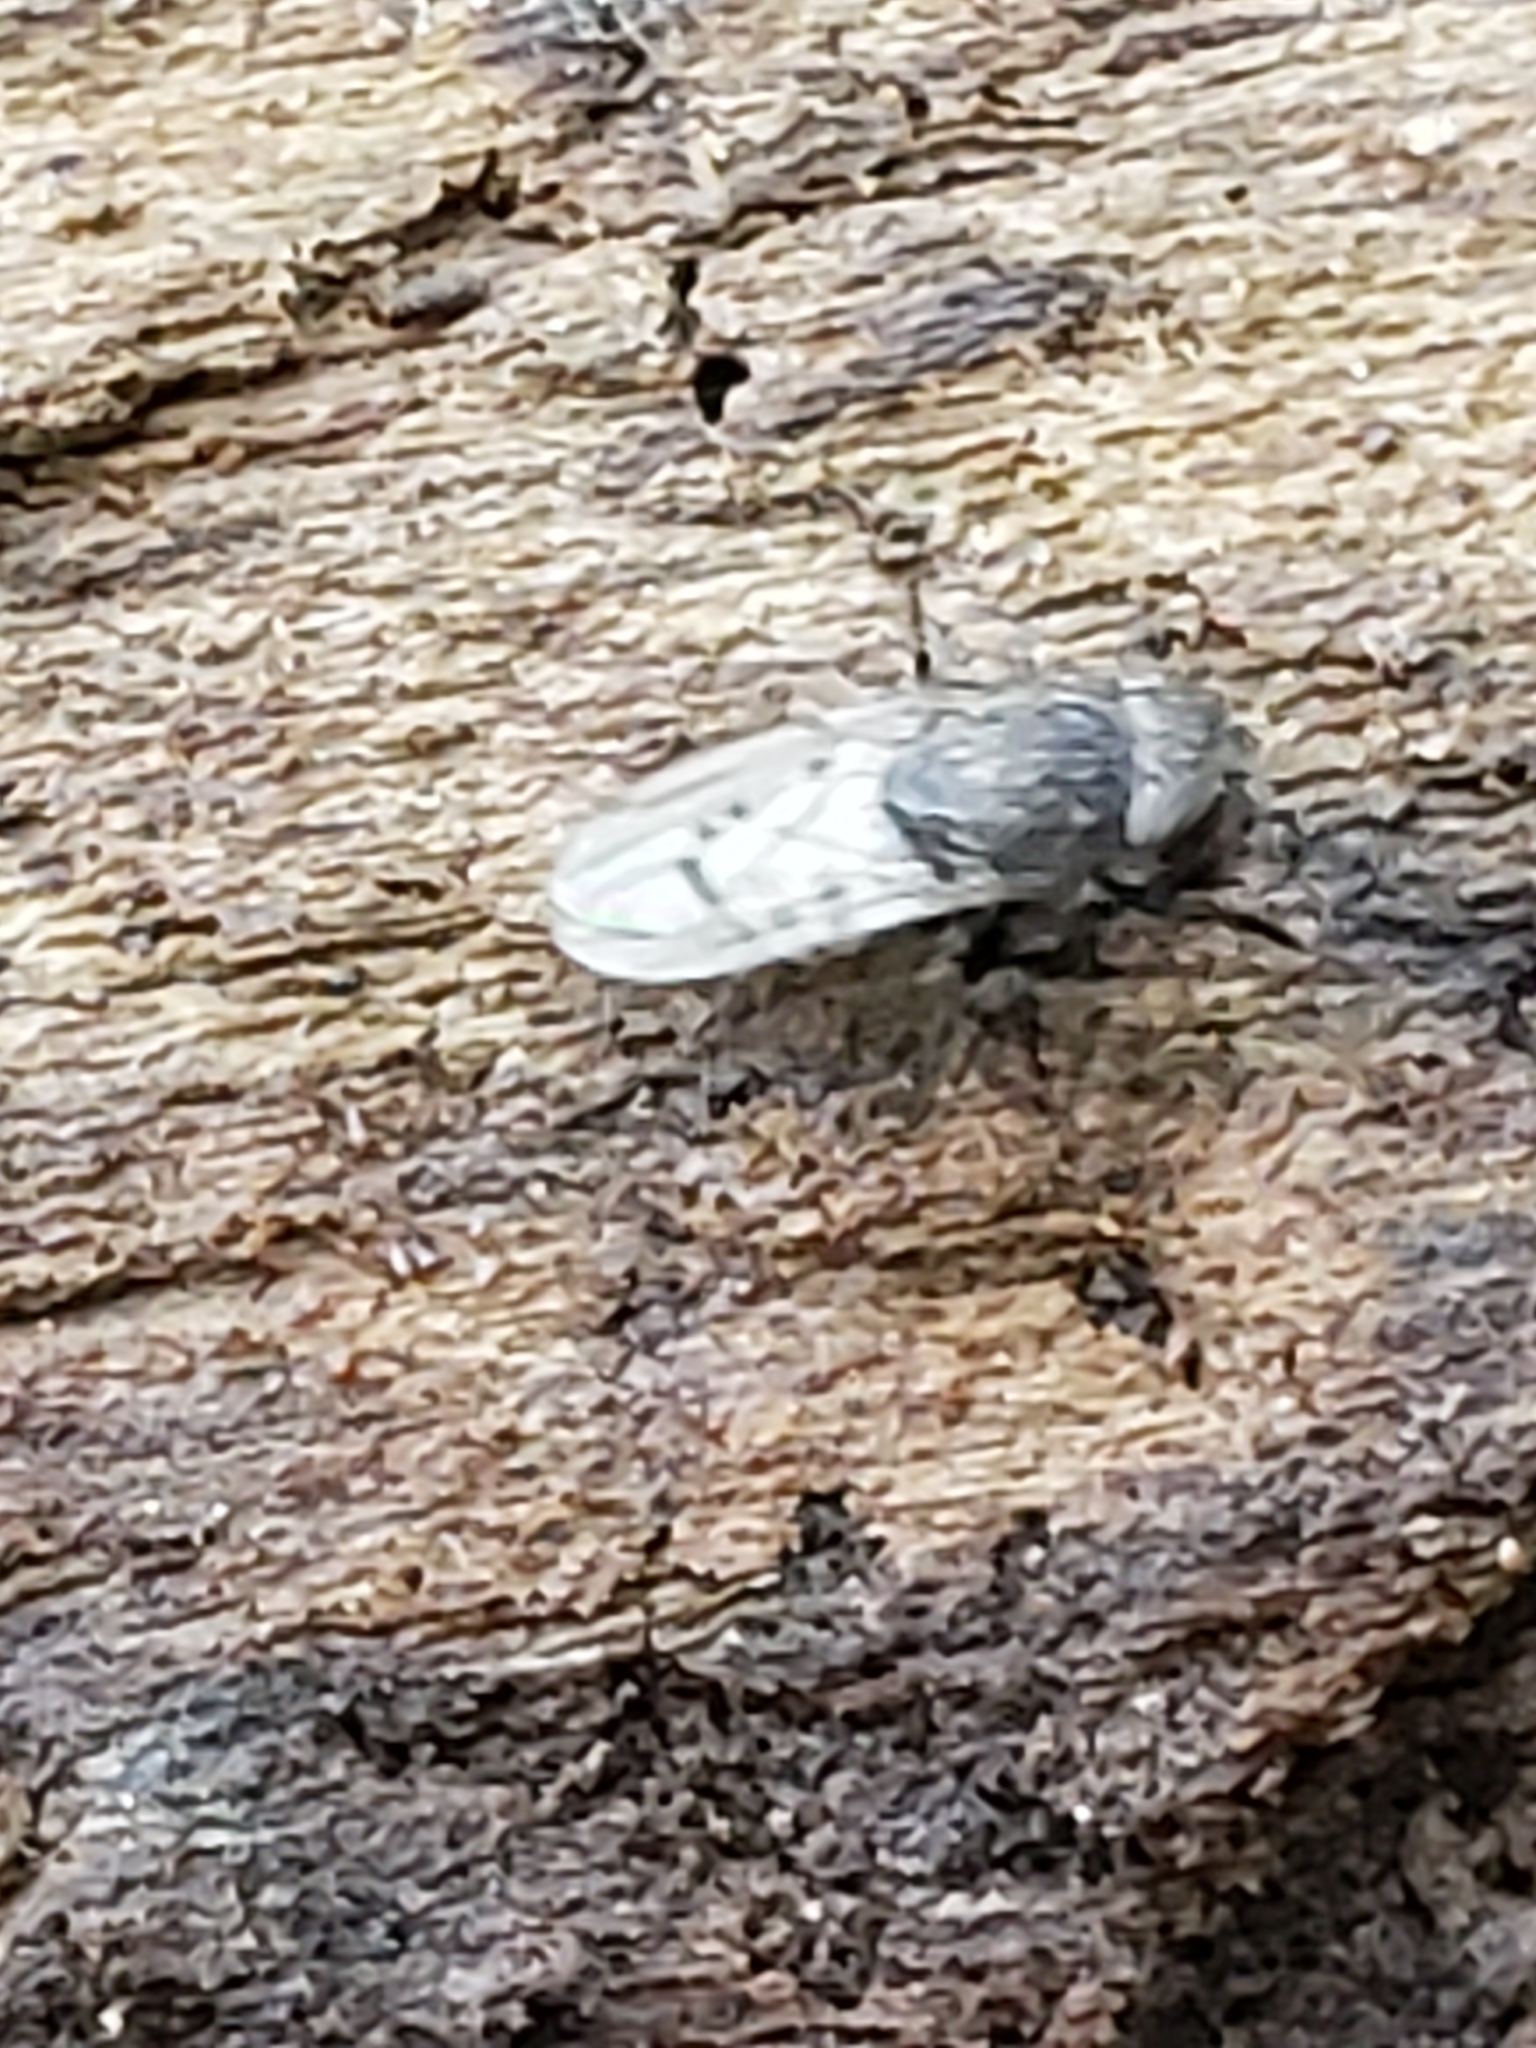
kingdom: Animalia
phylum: Arthropoda
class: Insecta
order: Diptera
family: Ephydridae
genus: Paralimna
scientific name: Paralimna punctipennis
